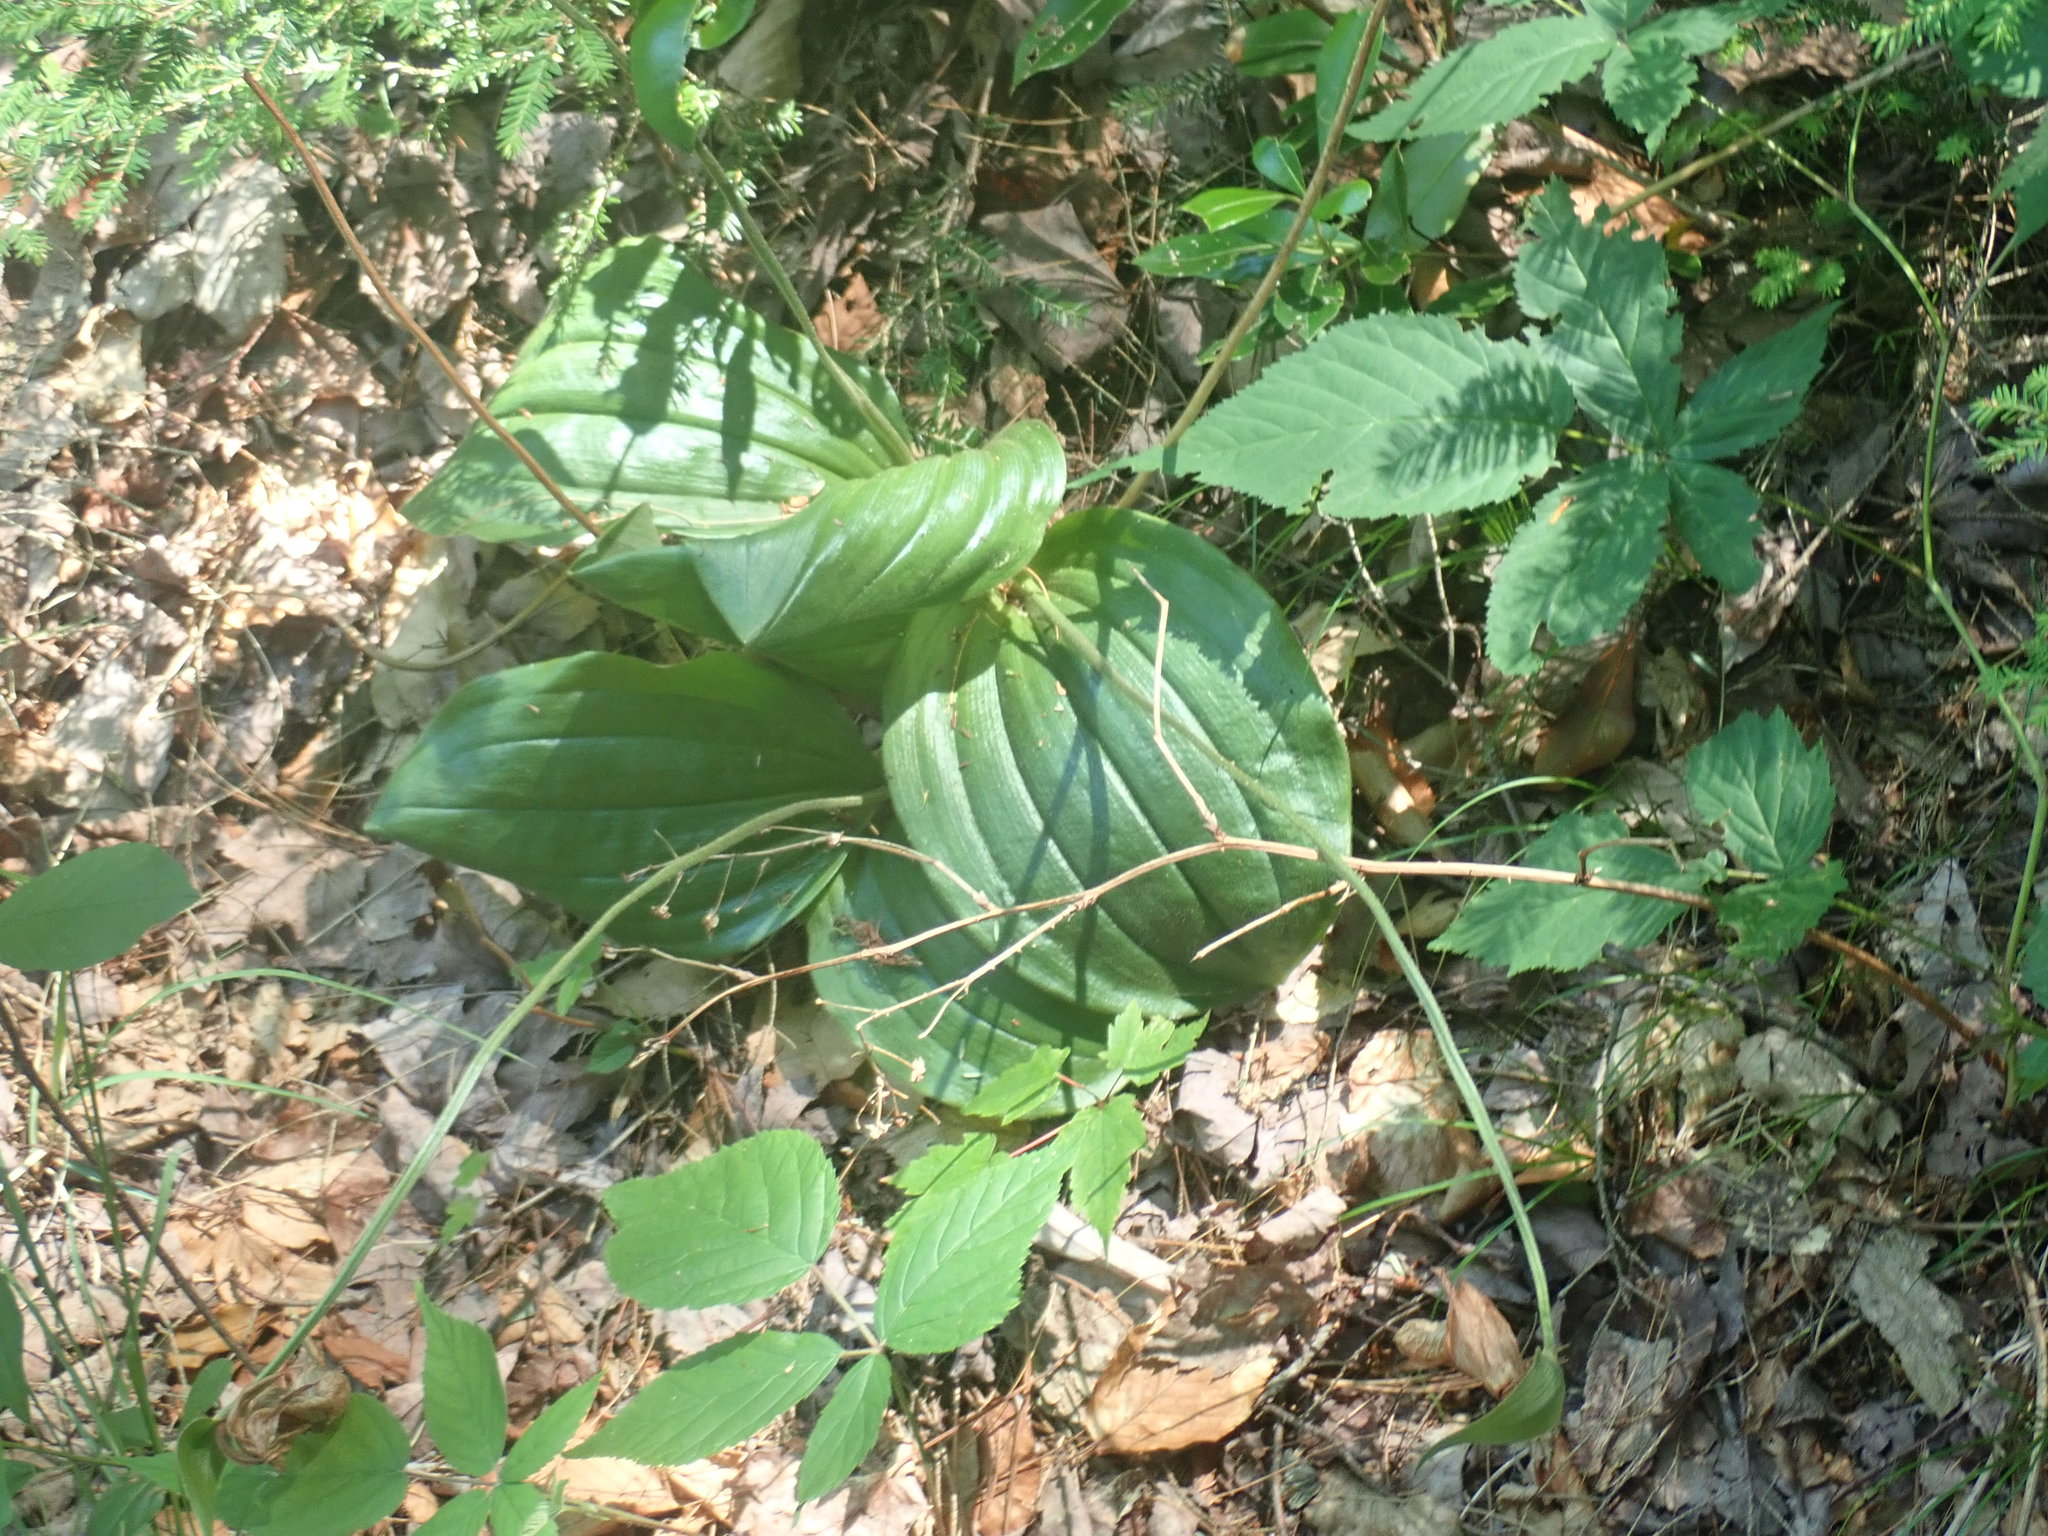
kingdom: Plantae
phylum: Tracheophyta
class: Liliopsida
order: Asparagales
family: Orchidaceae
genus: Cypripedium
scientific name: Cypripedium acaule
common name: Pink lady's-slipper
